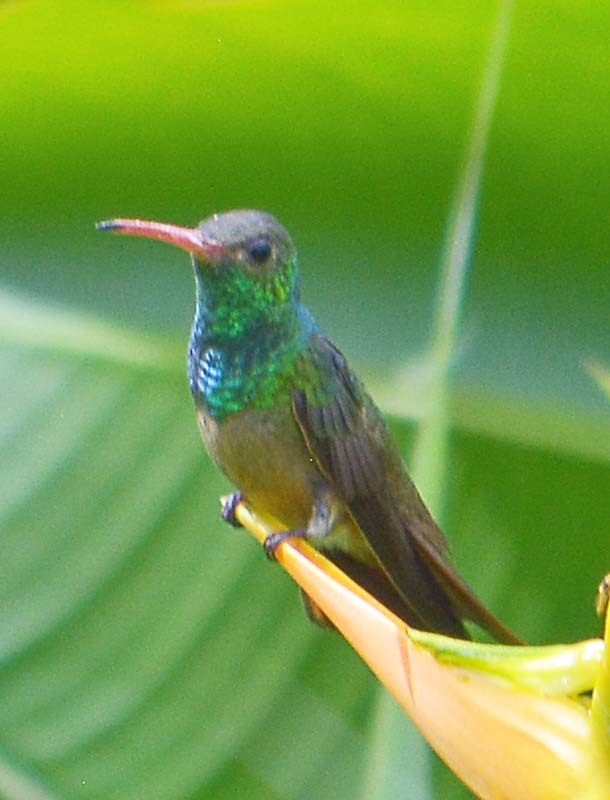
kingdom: Animalia
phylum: Chordata
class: Aves
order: Apodiformes
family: Trochilidae
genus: Amazilia
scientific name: Amazilia tzacatl
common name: Rufous-tailed hummingbird
